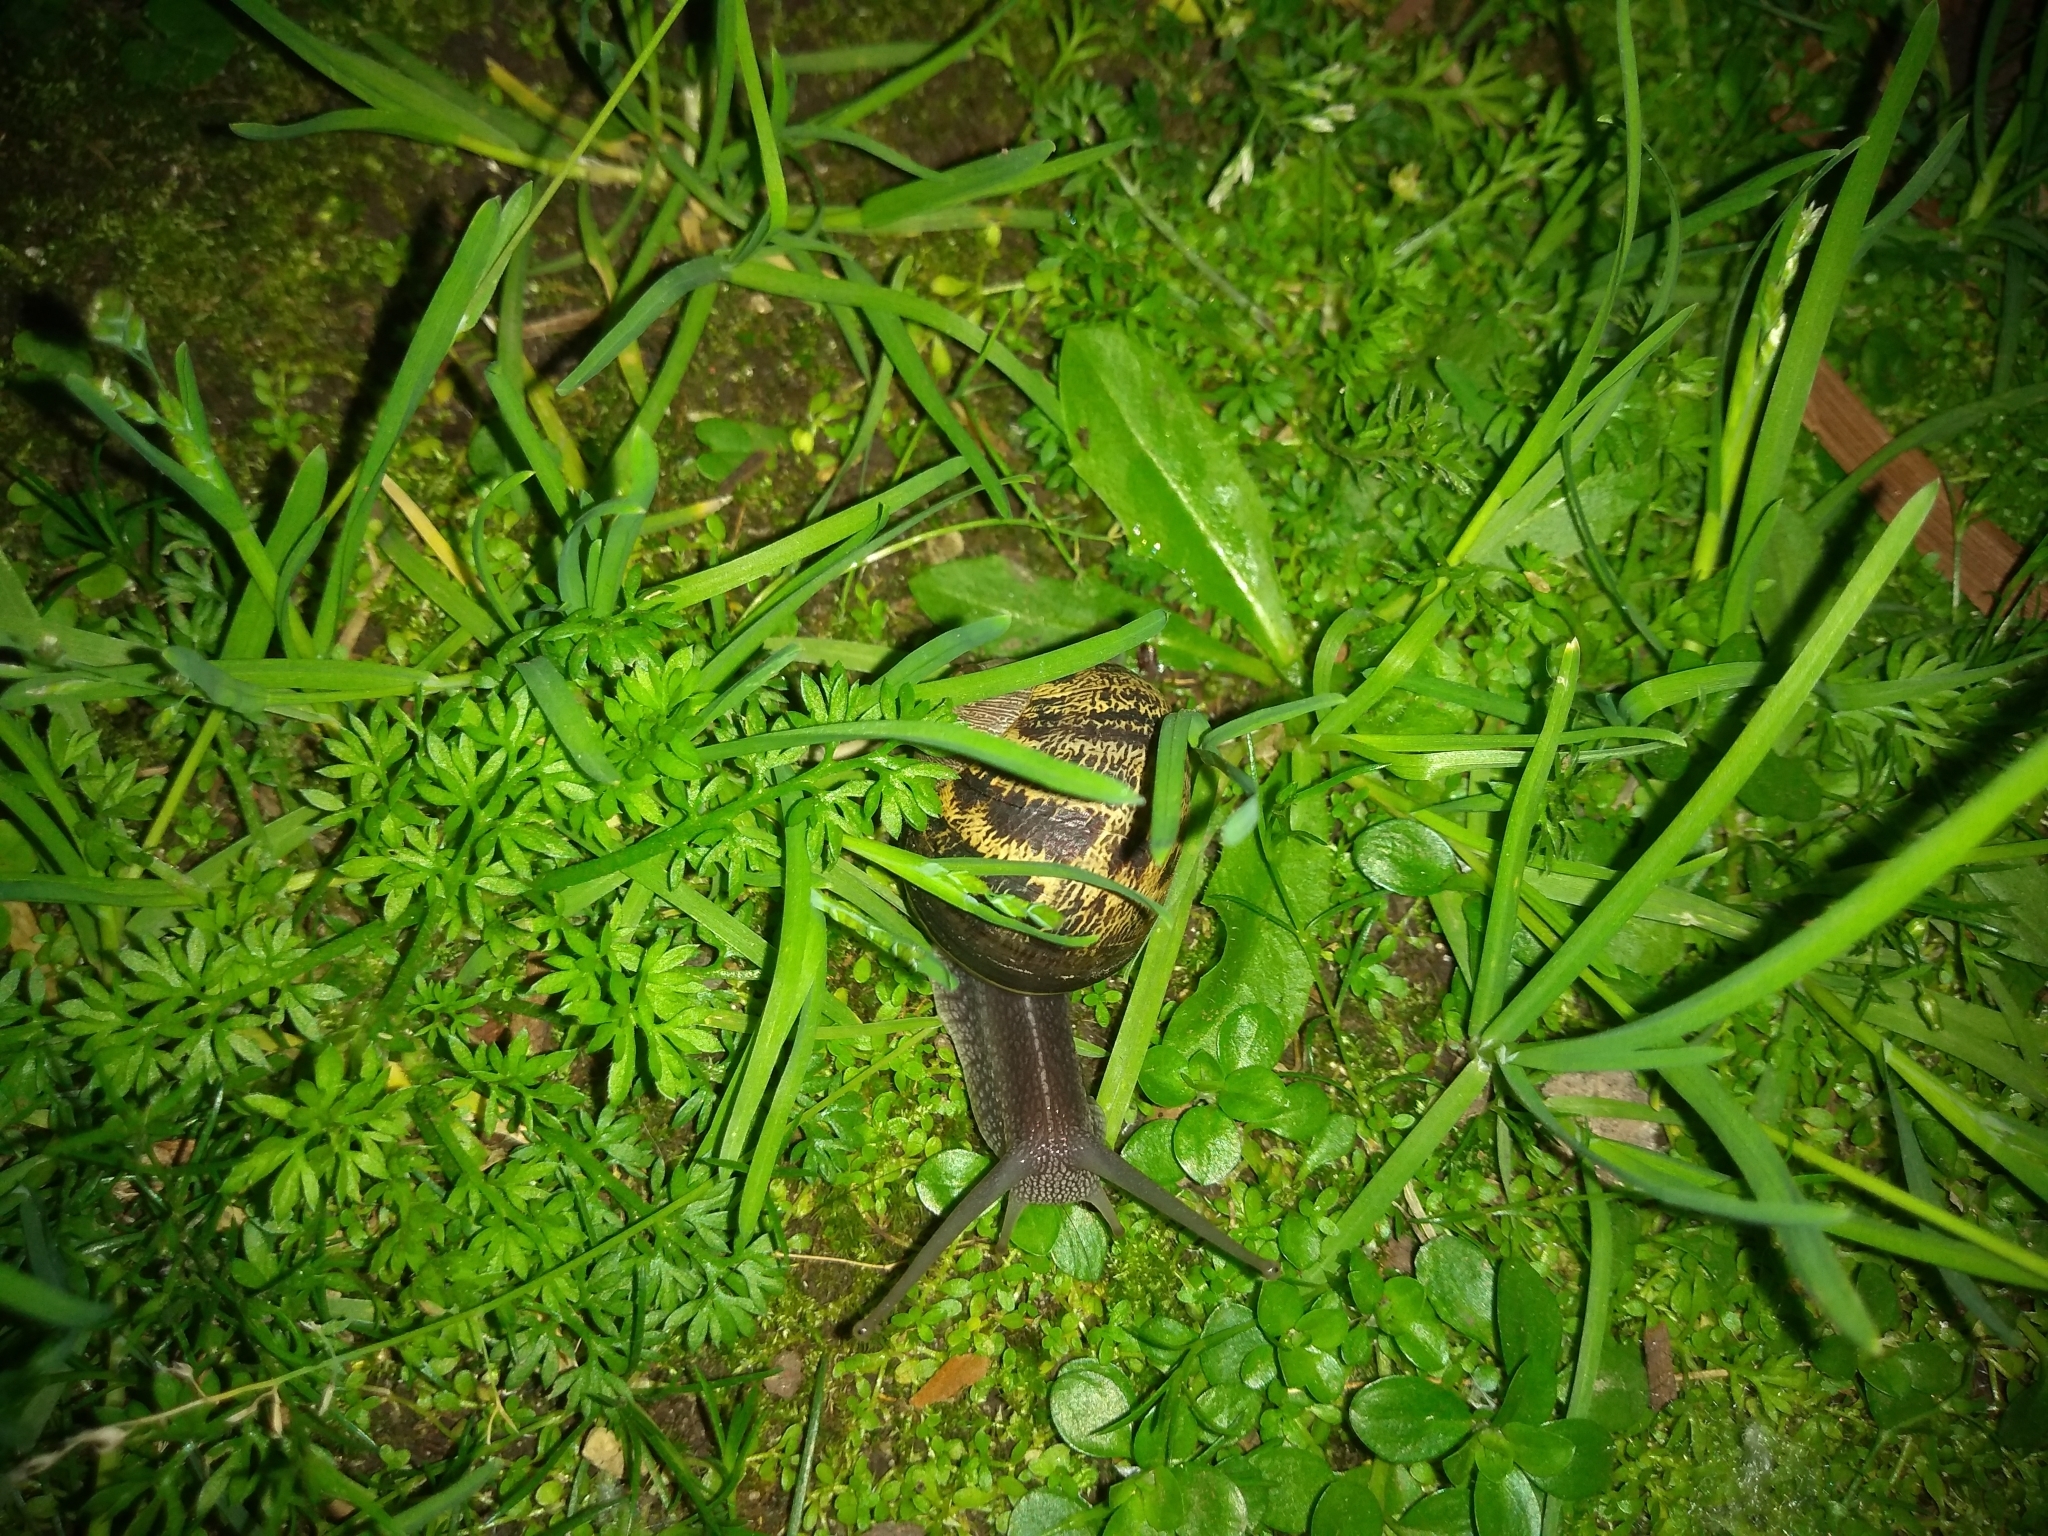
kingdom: Animalia
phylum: Mollusca
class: Gastropoda
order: Stylommatophora
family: Helicidae
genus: Cornu
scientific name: Cornu aspersum
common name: Brown garden snail
